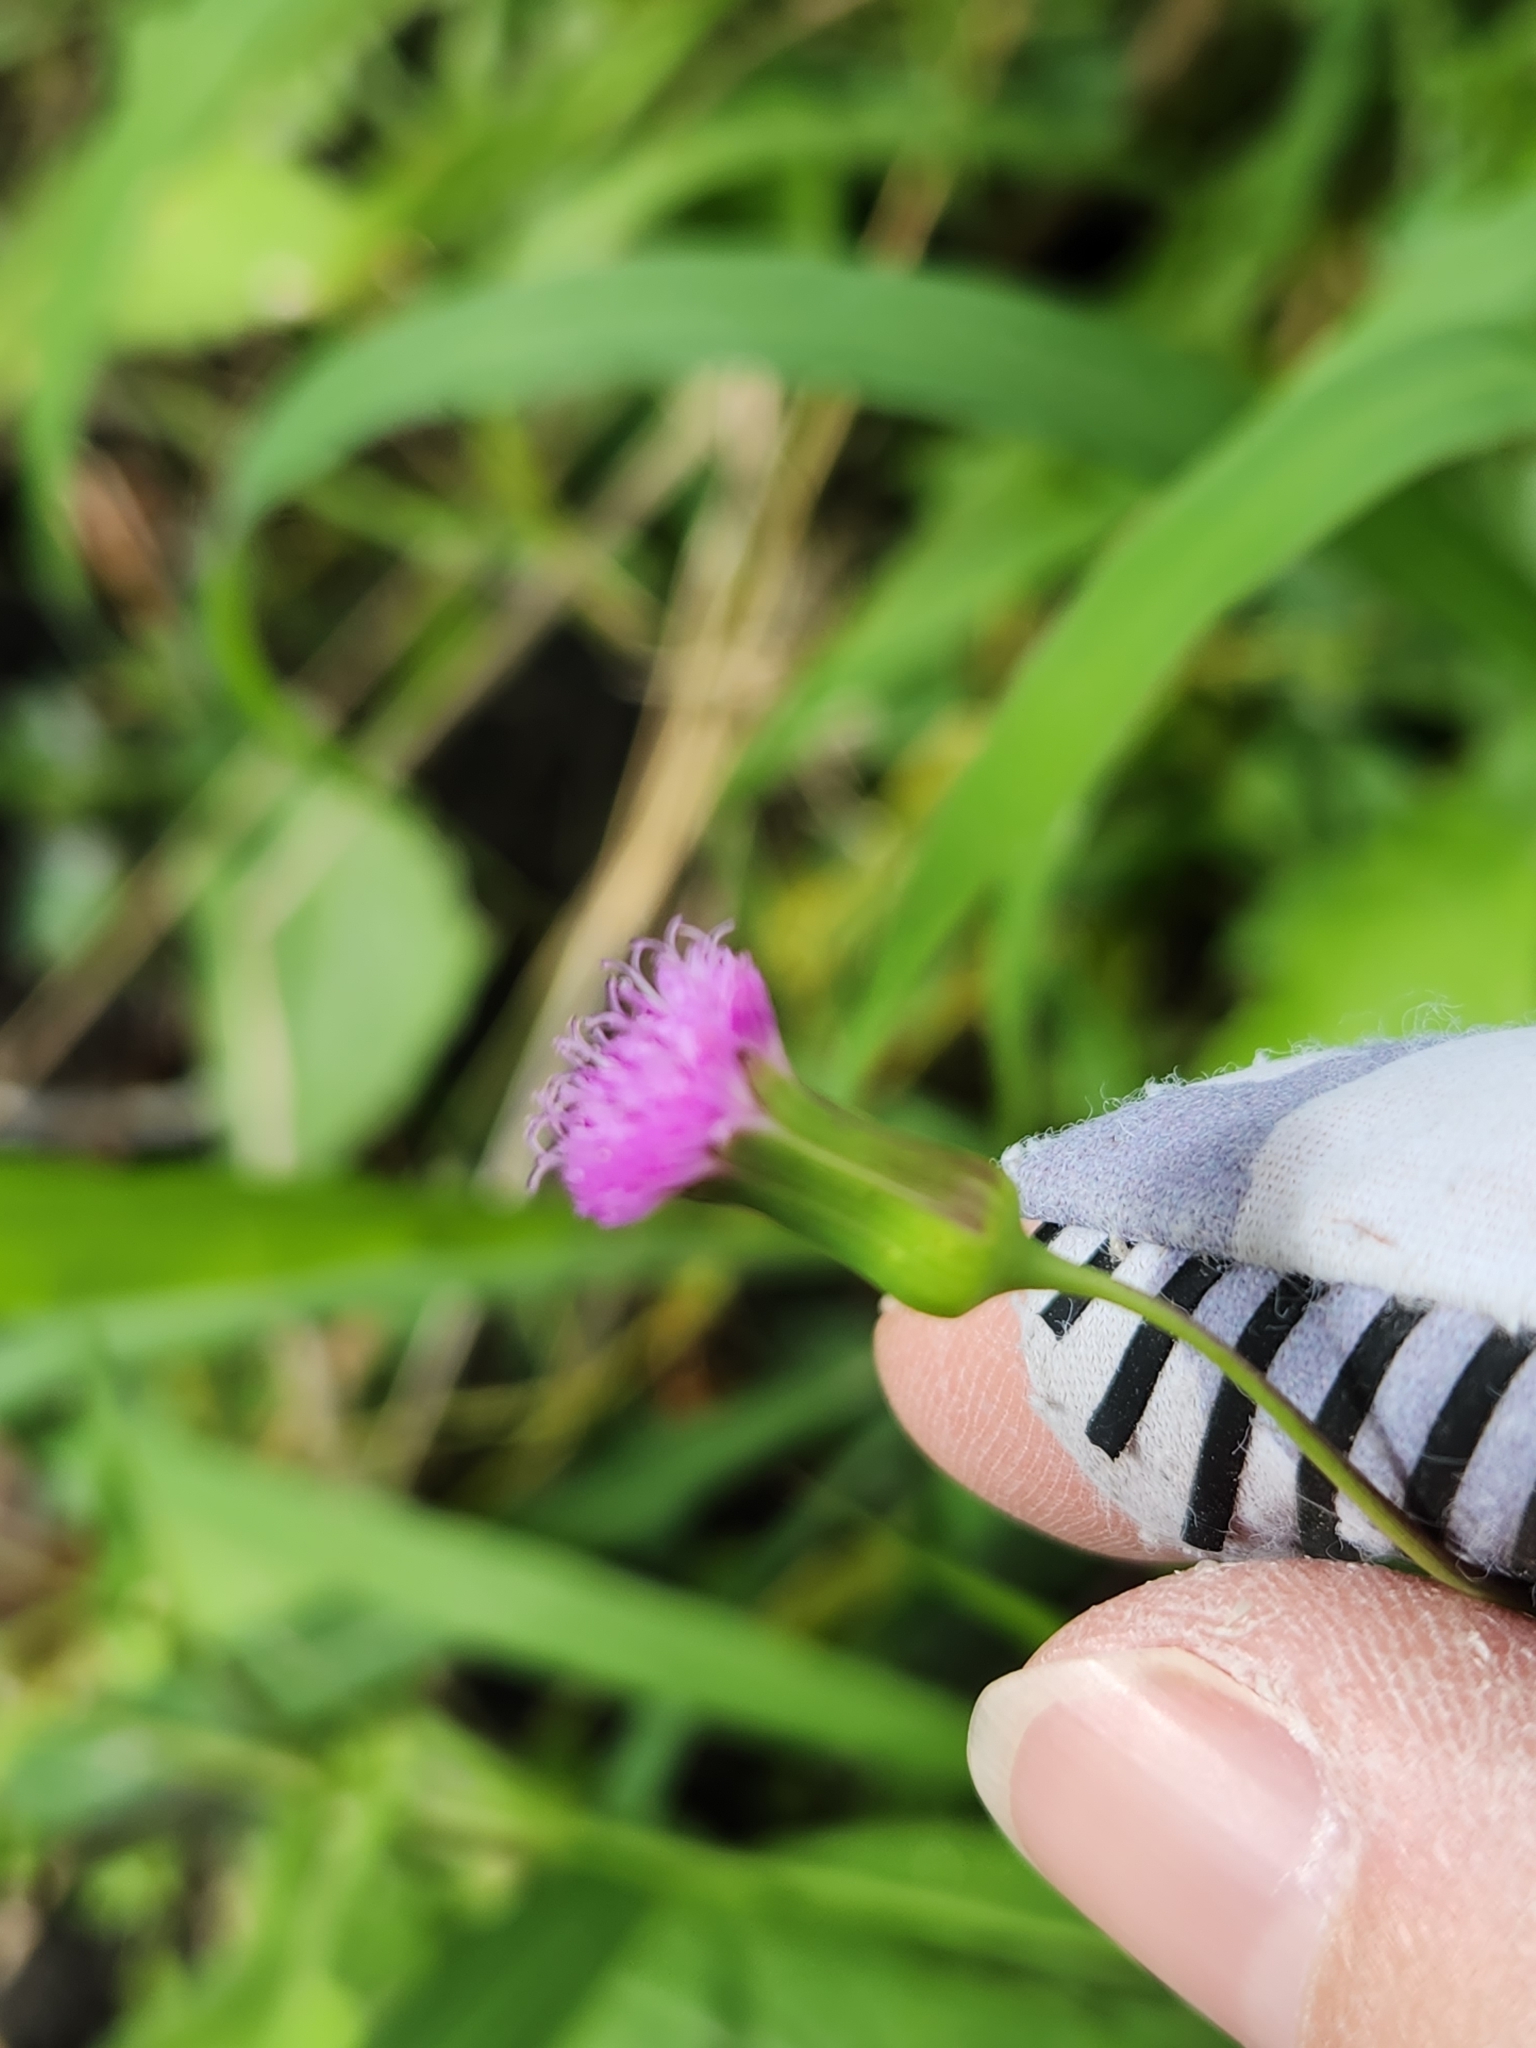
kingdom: Plantae
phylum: Tracheophyta
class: Magnoliopsida
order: Asterales
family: Asteraceae
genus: Emilia
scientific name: Emilia sonchifolia
